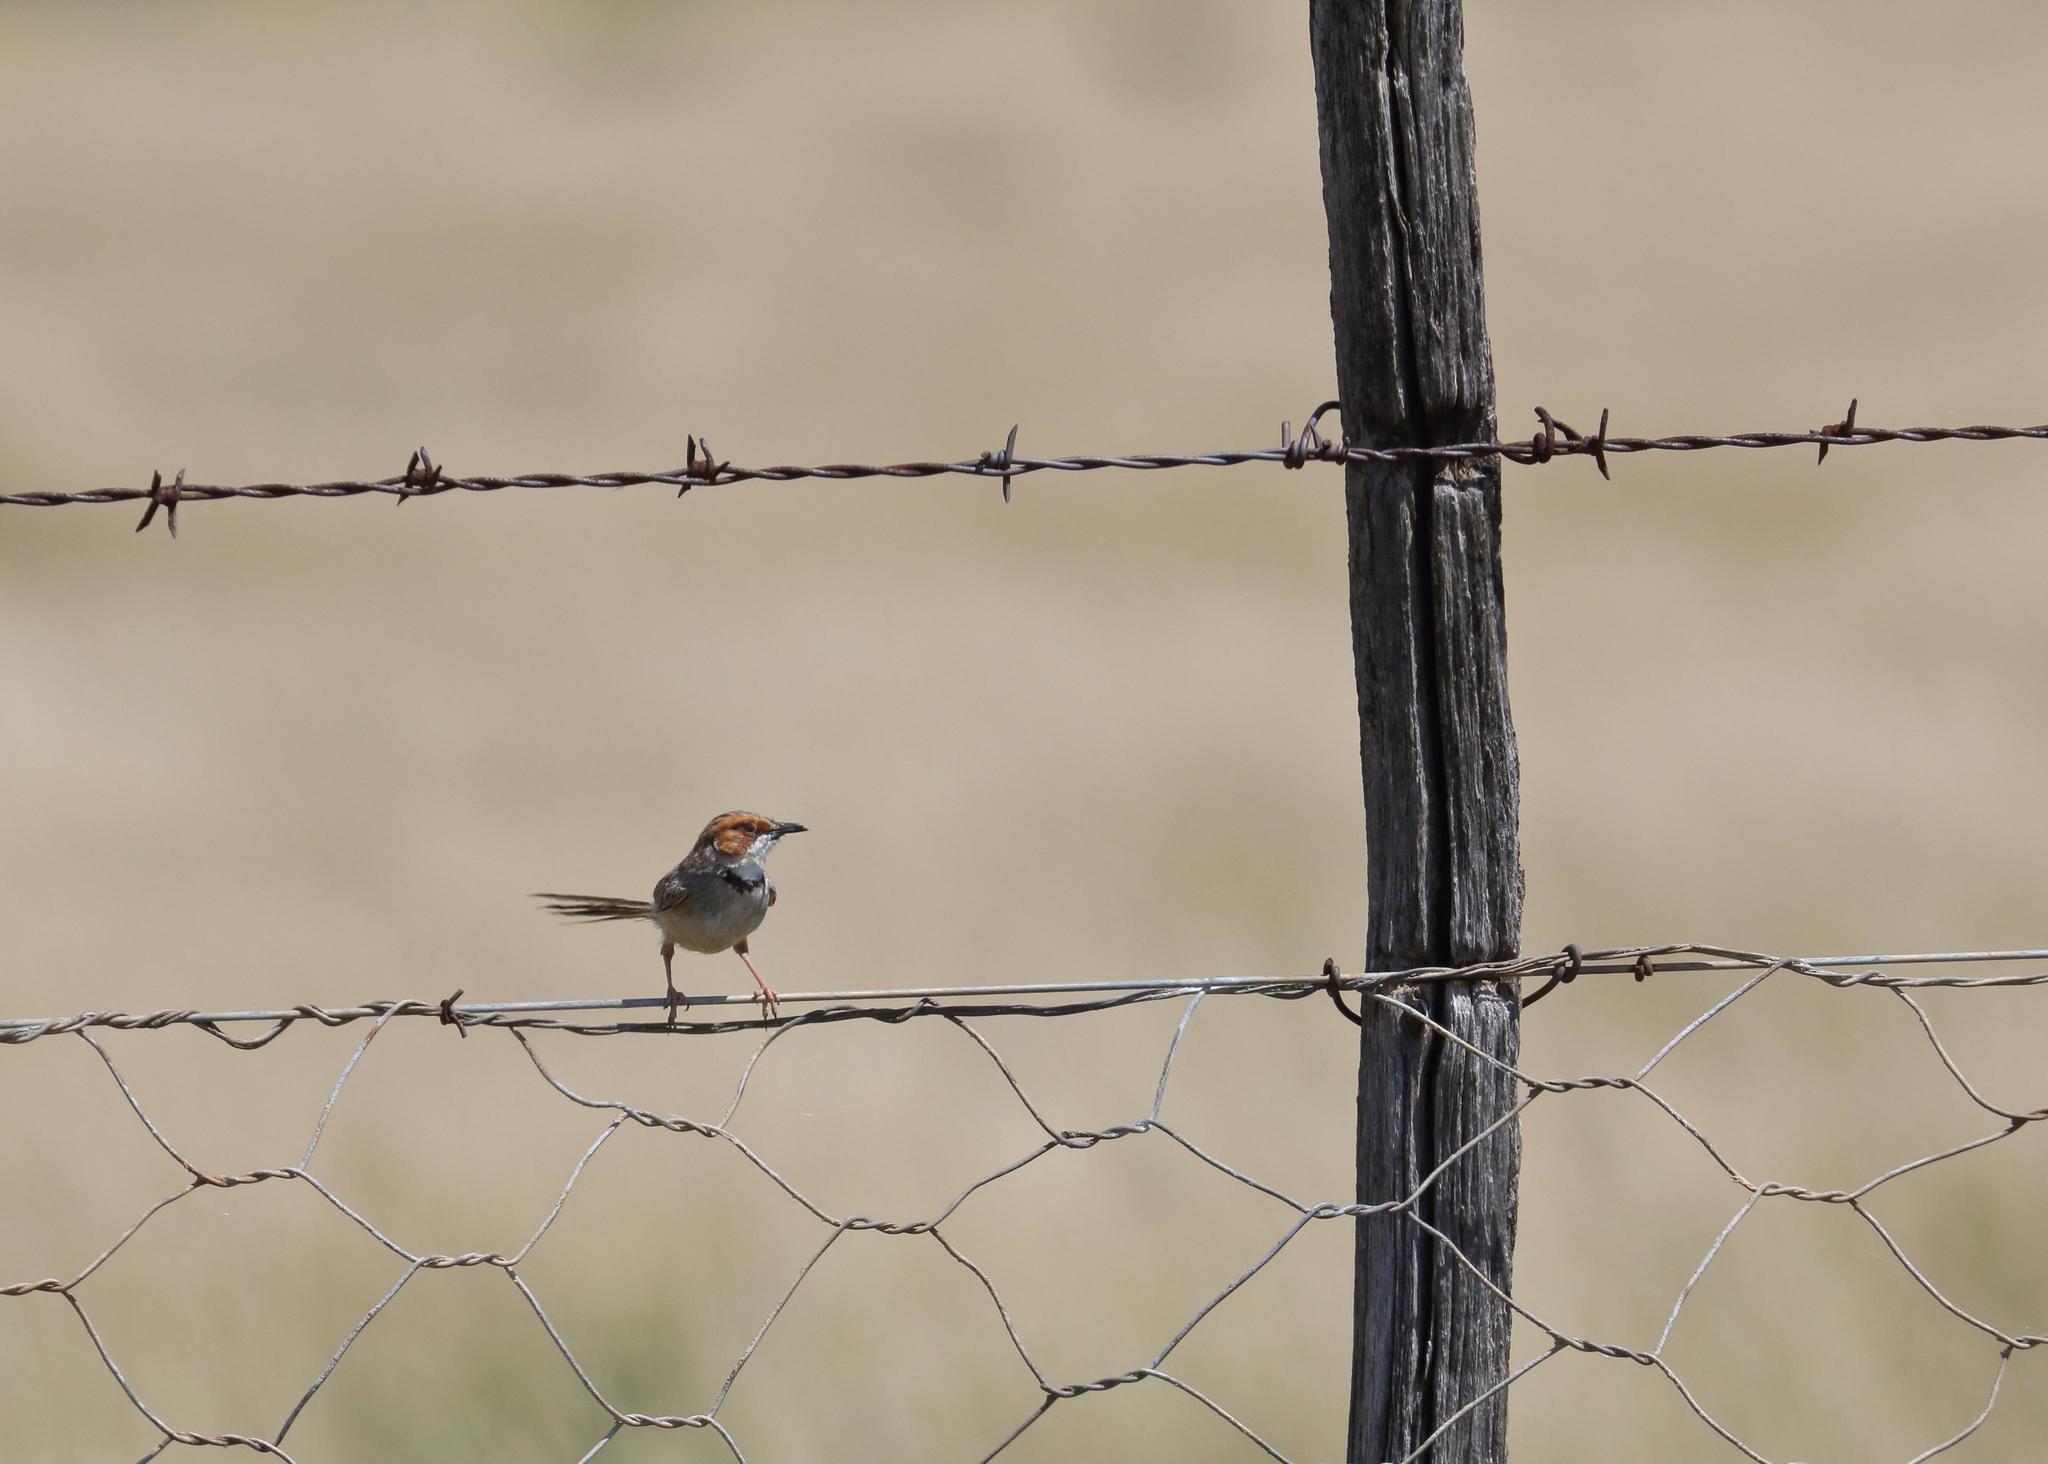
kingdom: Animalia
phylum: Chordata
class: Aves
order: Passeriformes
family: Cisticolidae
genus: Malcorus
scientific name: Malcorus pectoralis
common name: Rufous-eared warbler
